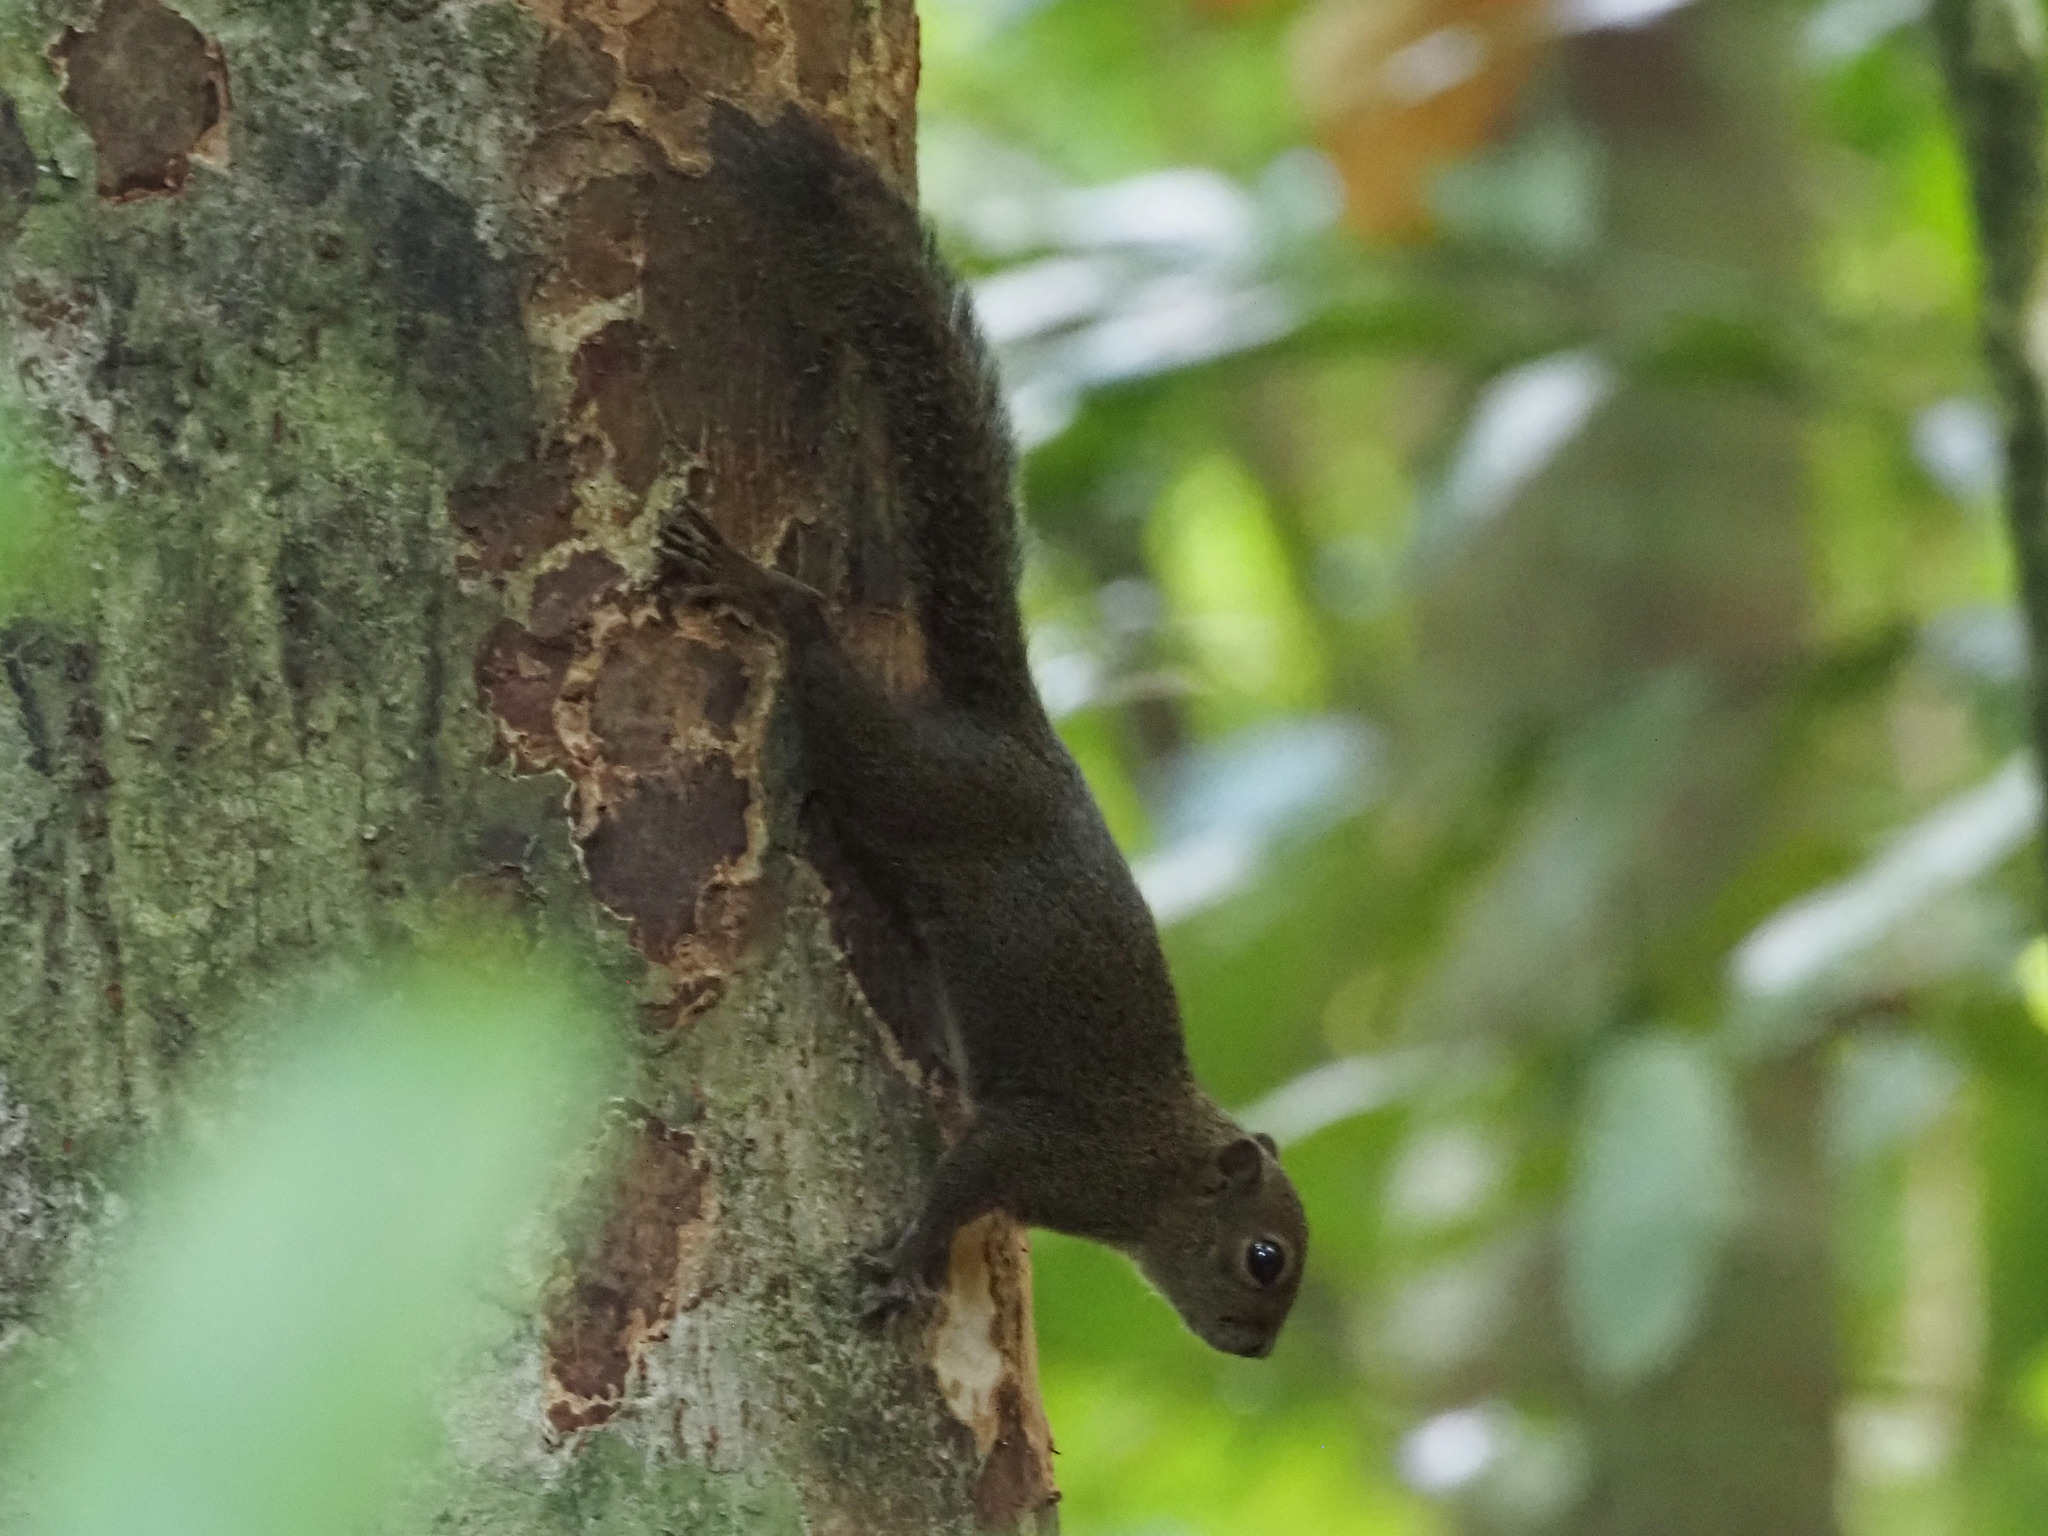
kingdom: Animalia
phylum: Chordata
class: Mammalia
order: Rodentia
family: Sciuridae
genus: Microsciurus
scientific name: Microsciurus alfari
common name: Central american dwarf squirrel
